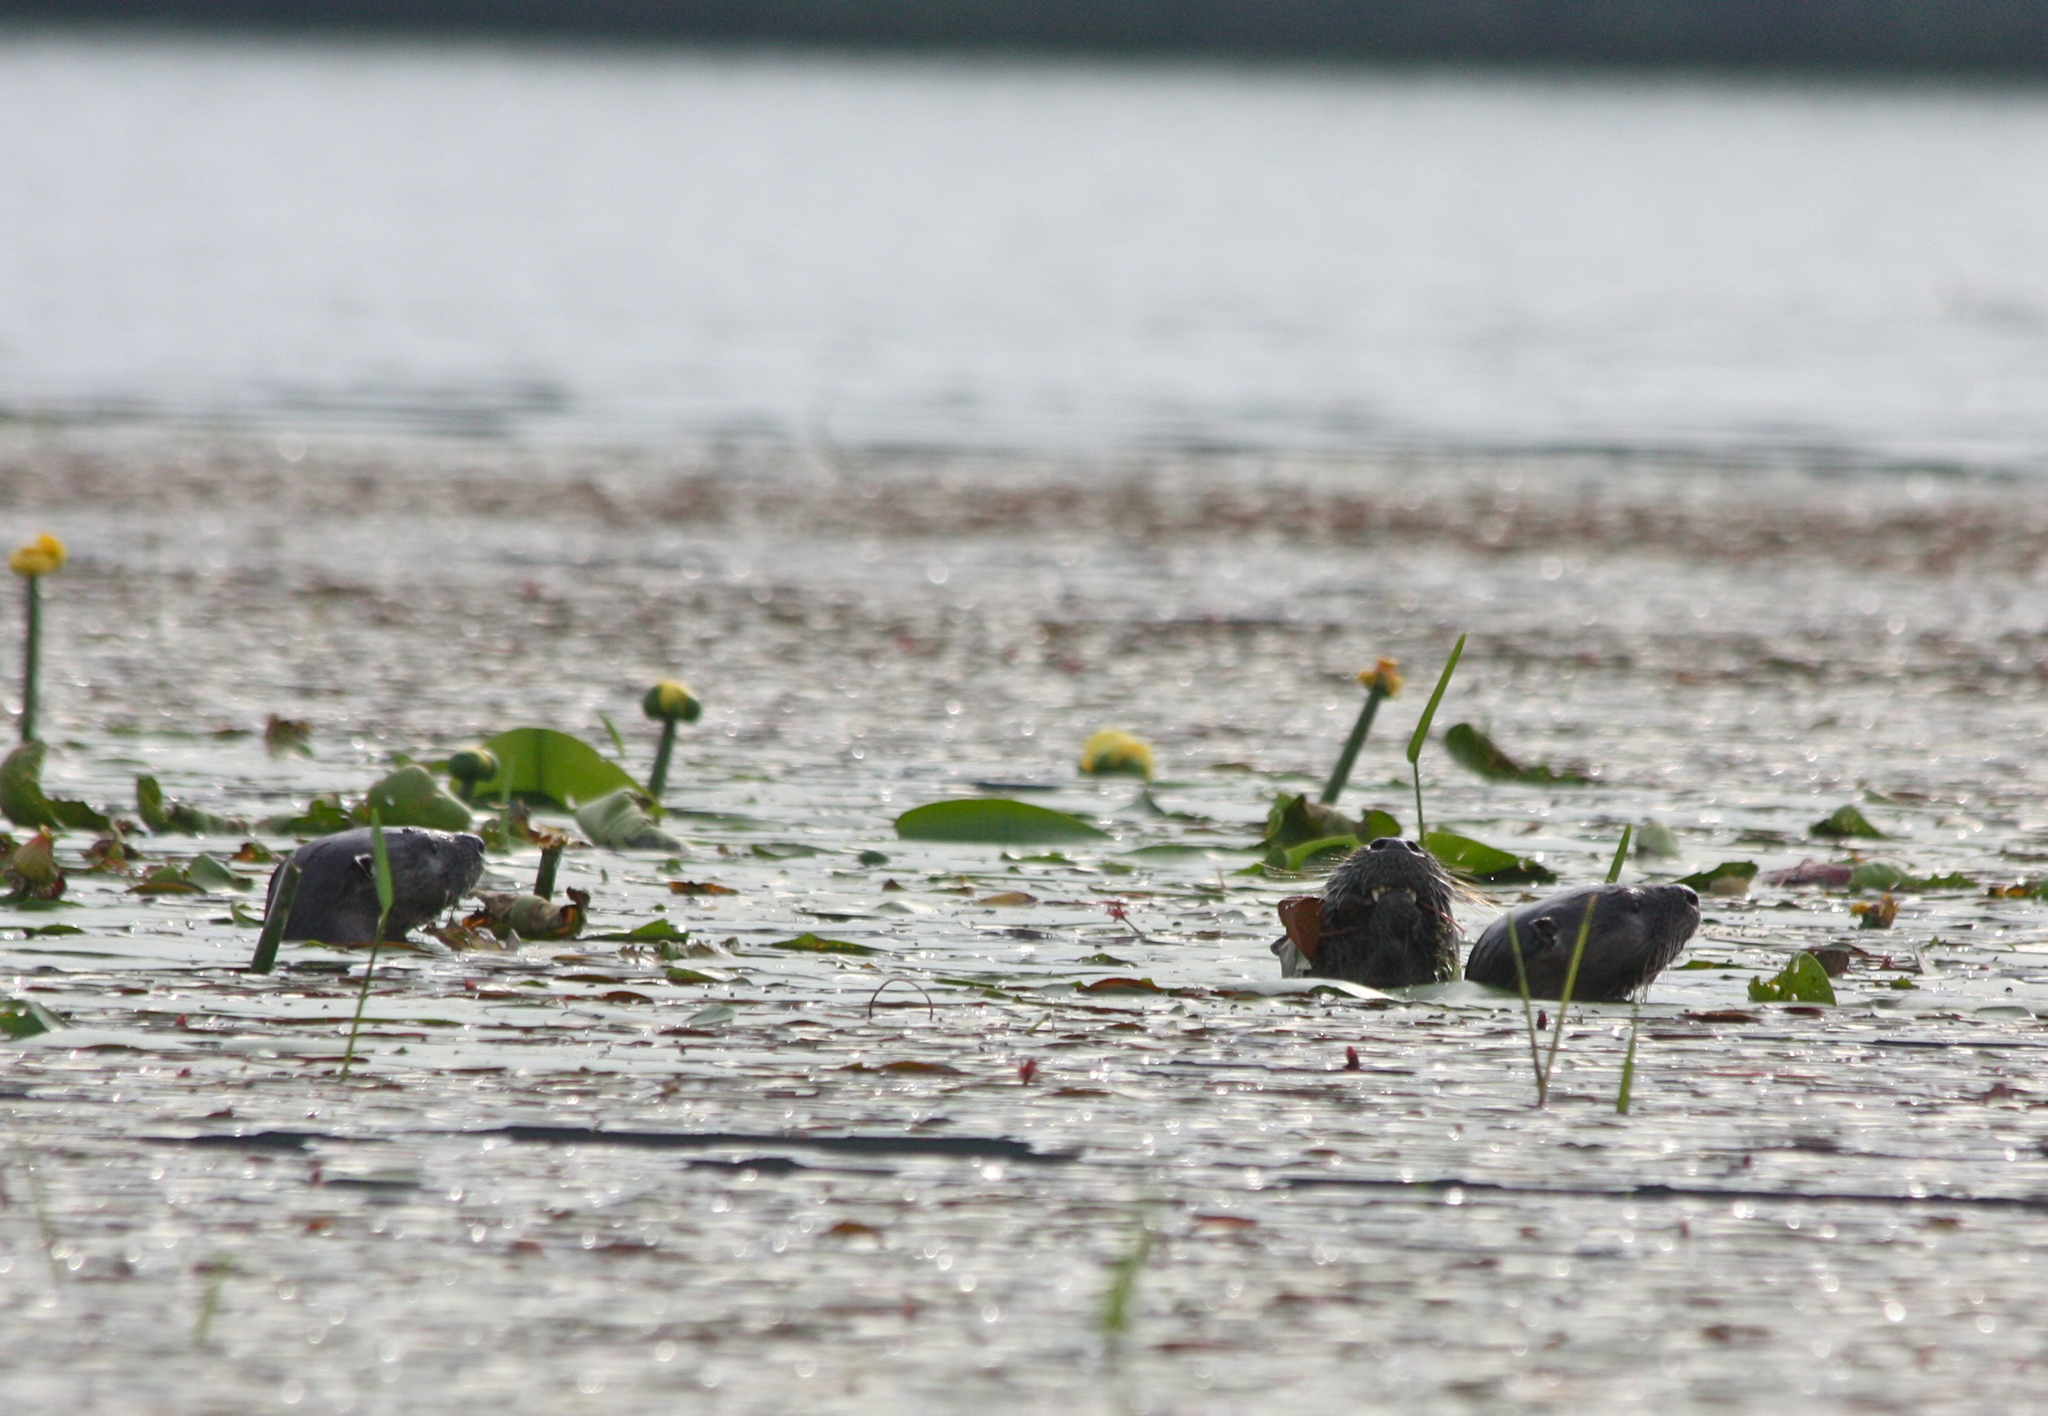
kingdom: Animalia
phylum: Chordata
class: Mammalia
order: Carnivora
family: Mustelidae
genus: Lontra
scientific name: Lontra canadensis
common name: North american river otter
